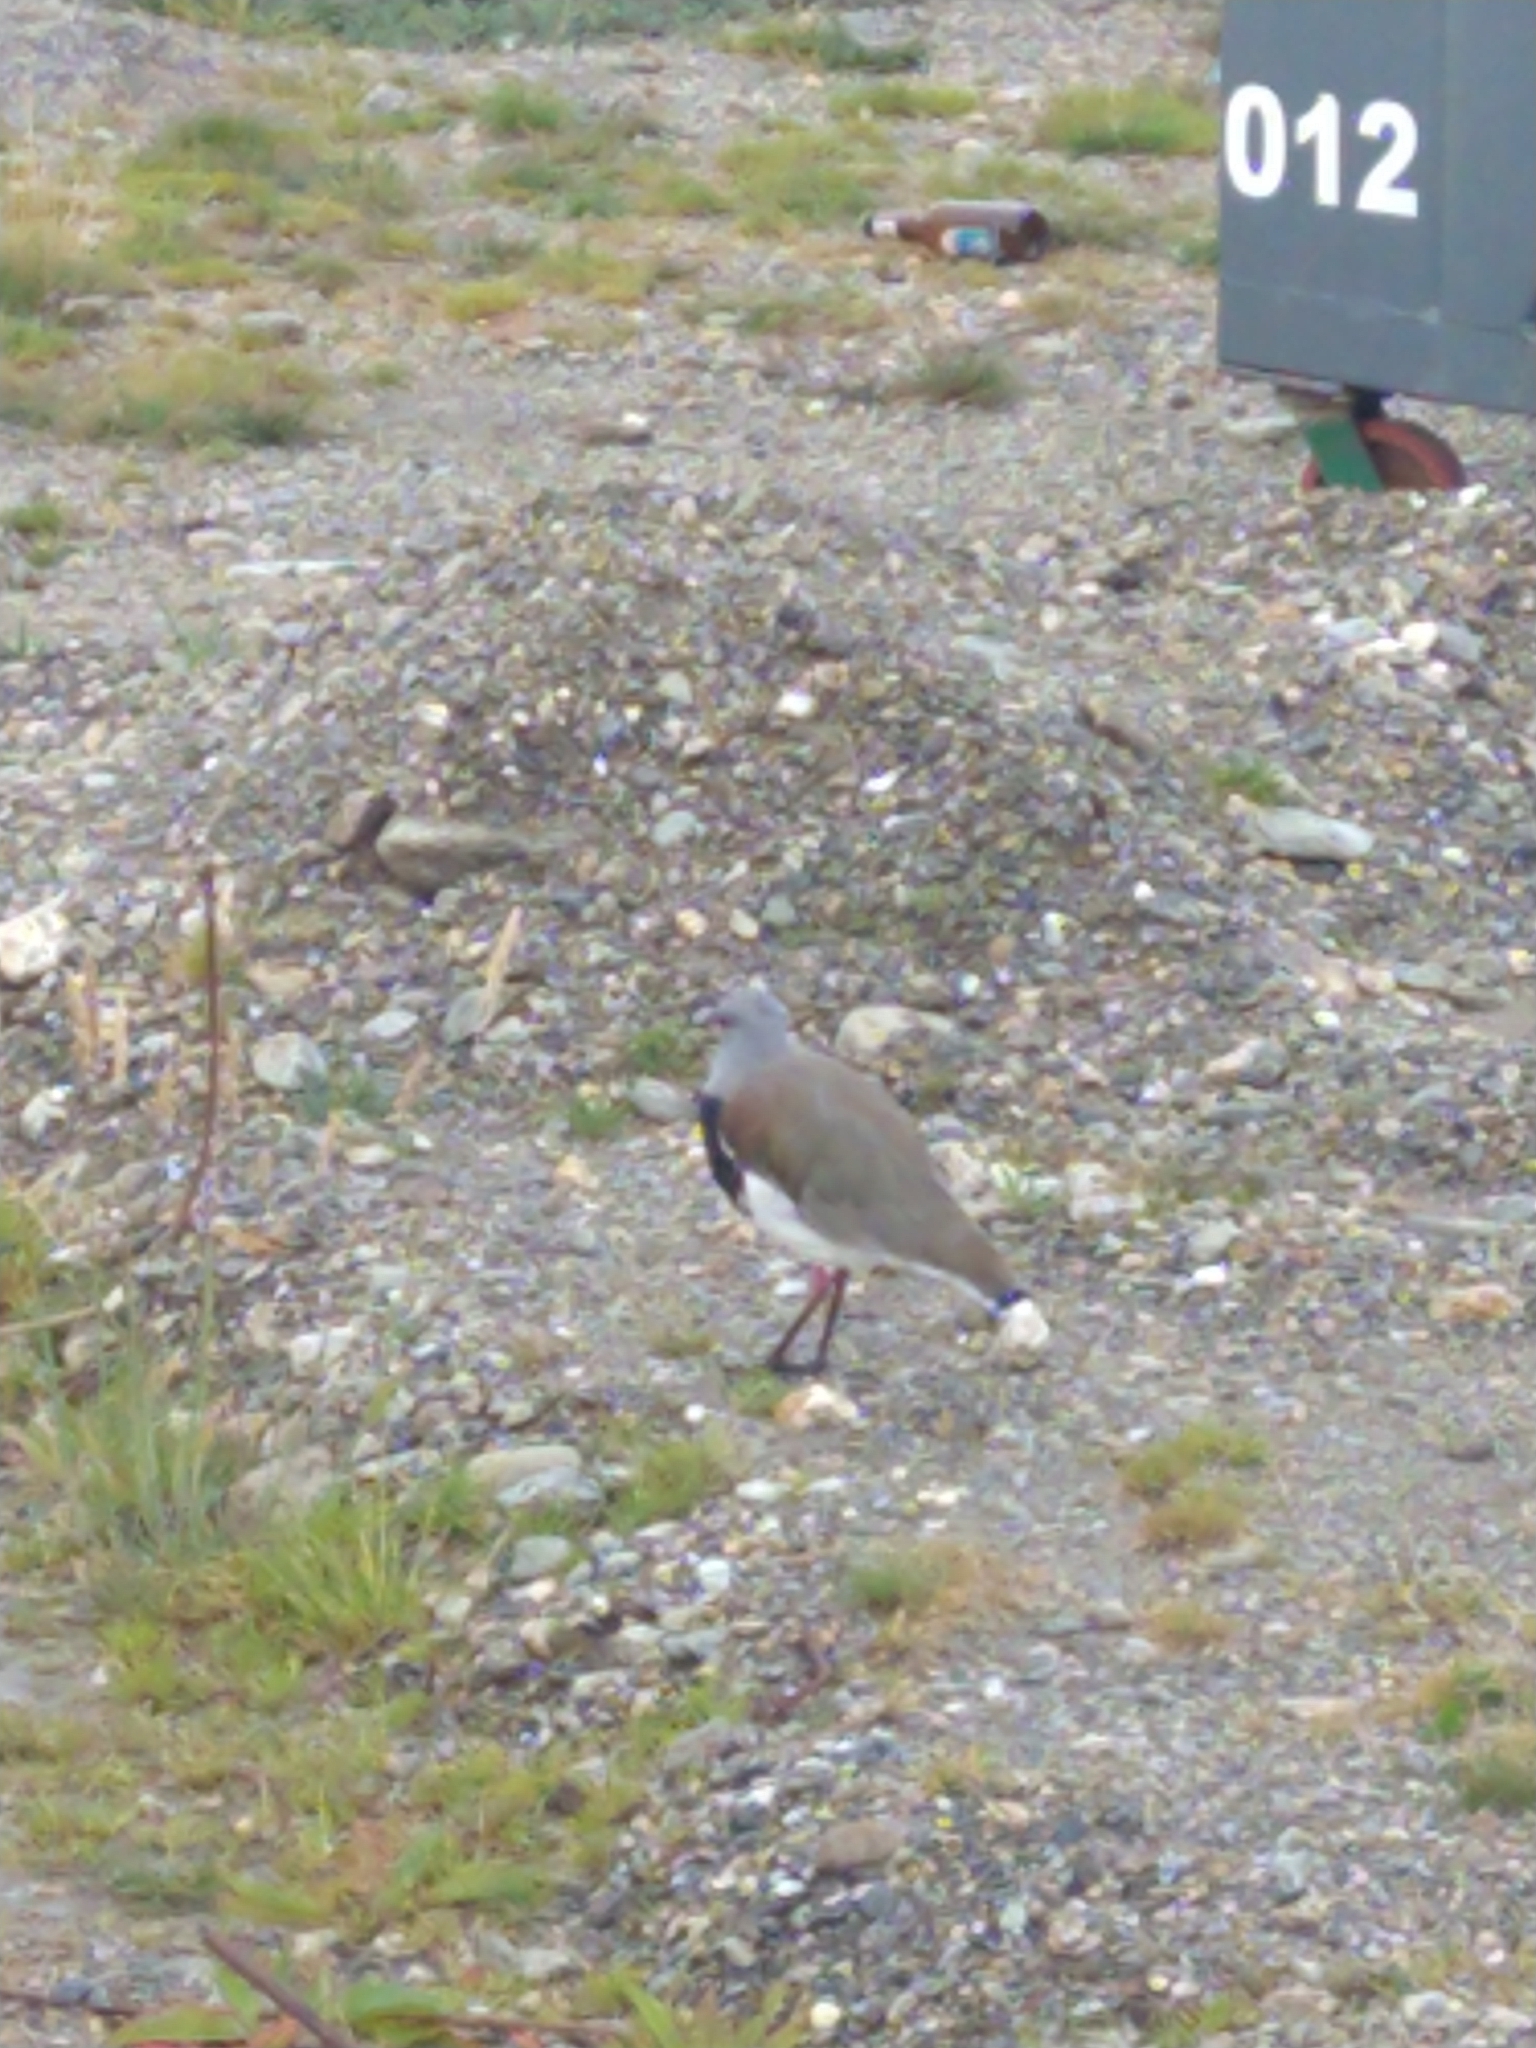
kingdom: Animalia
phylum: Chordata
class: Aves
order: Charadriiformes
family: Charadriidae
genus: Vanellus
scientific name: Vanellus chilensis
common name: Southern lapwing
